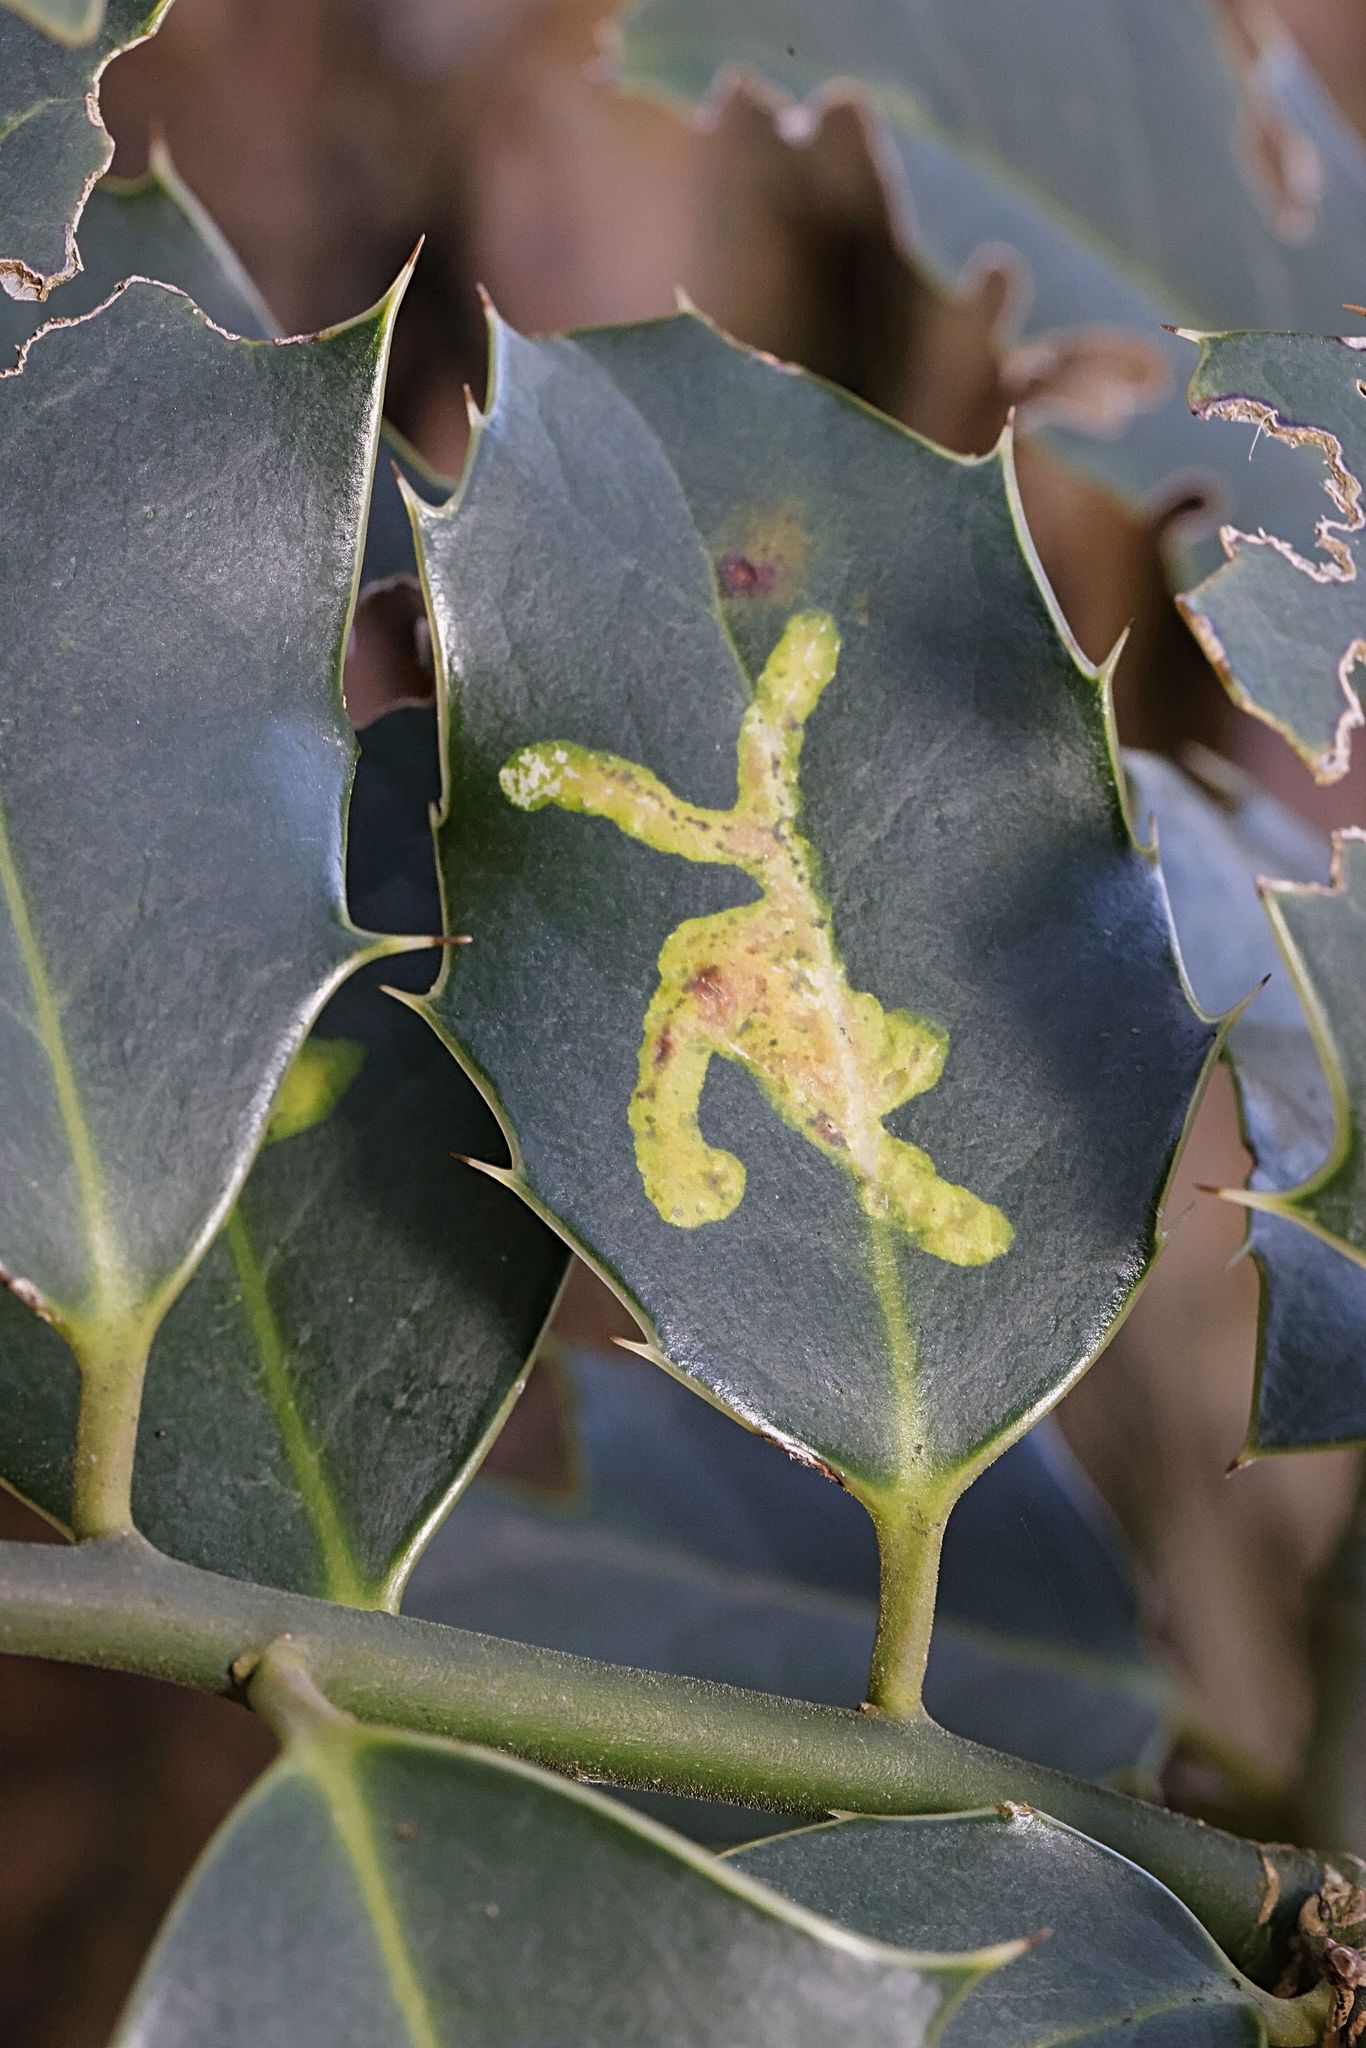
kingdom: Animalia
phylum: Arthropoda
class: Insecta
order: Diptera
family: Agromyzidae
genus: Phytomyza
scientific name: Phytomyza ilicis
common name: Holly leafminer
